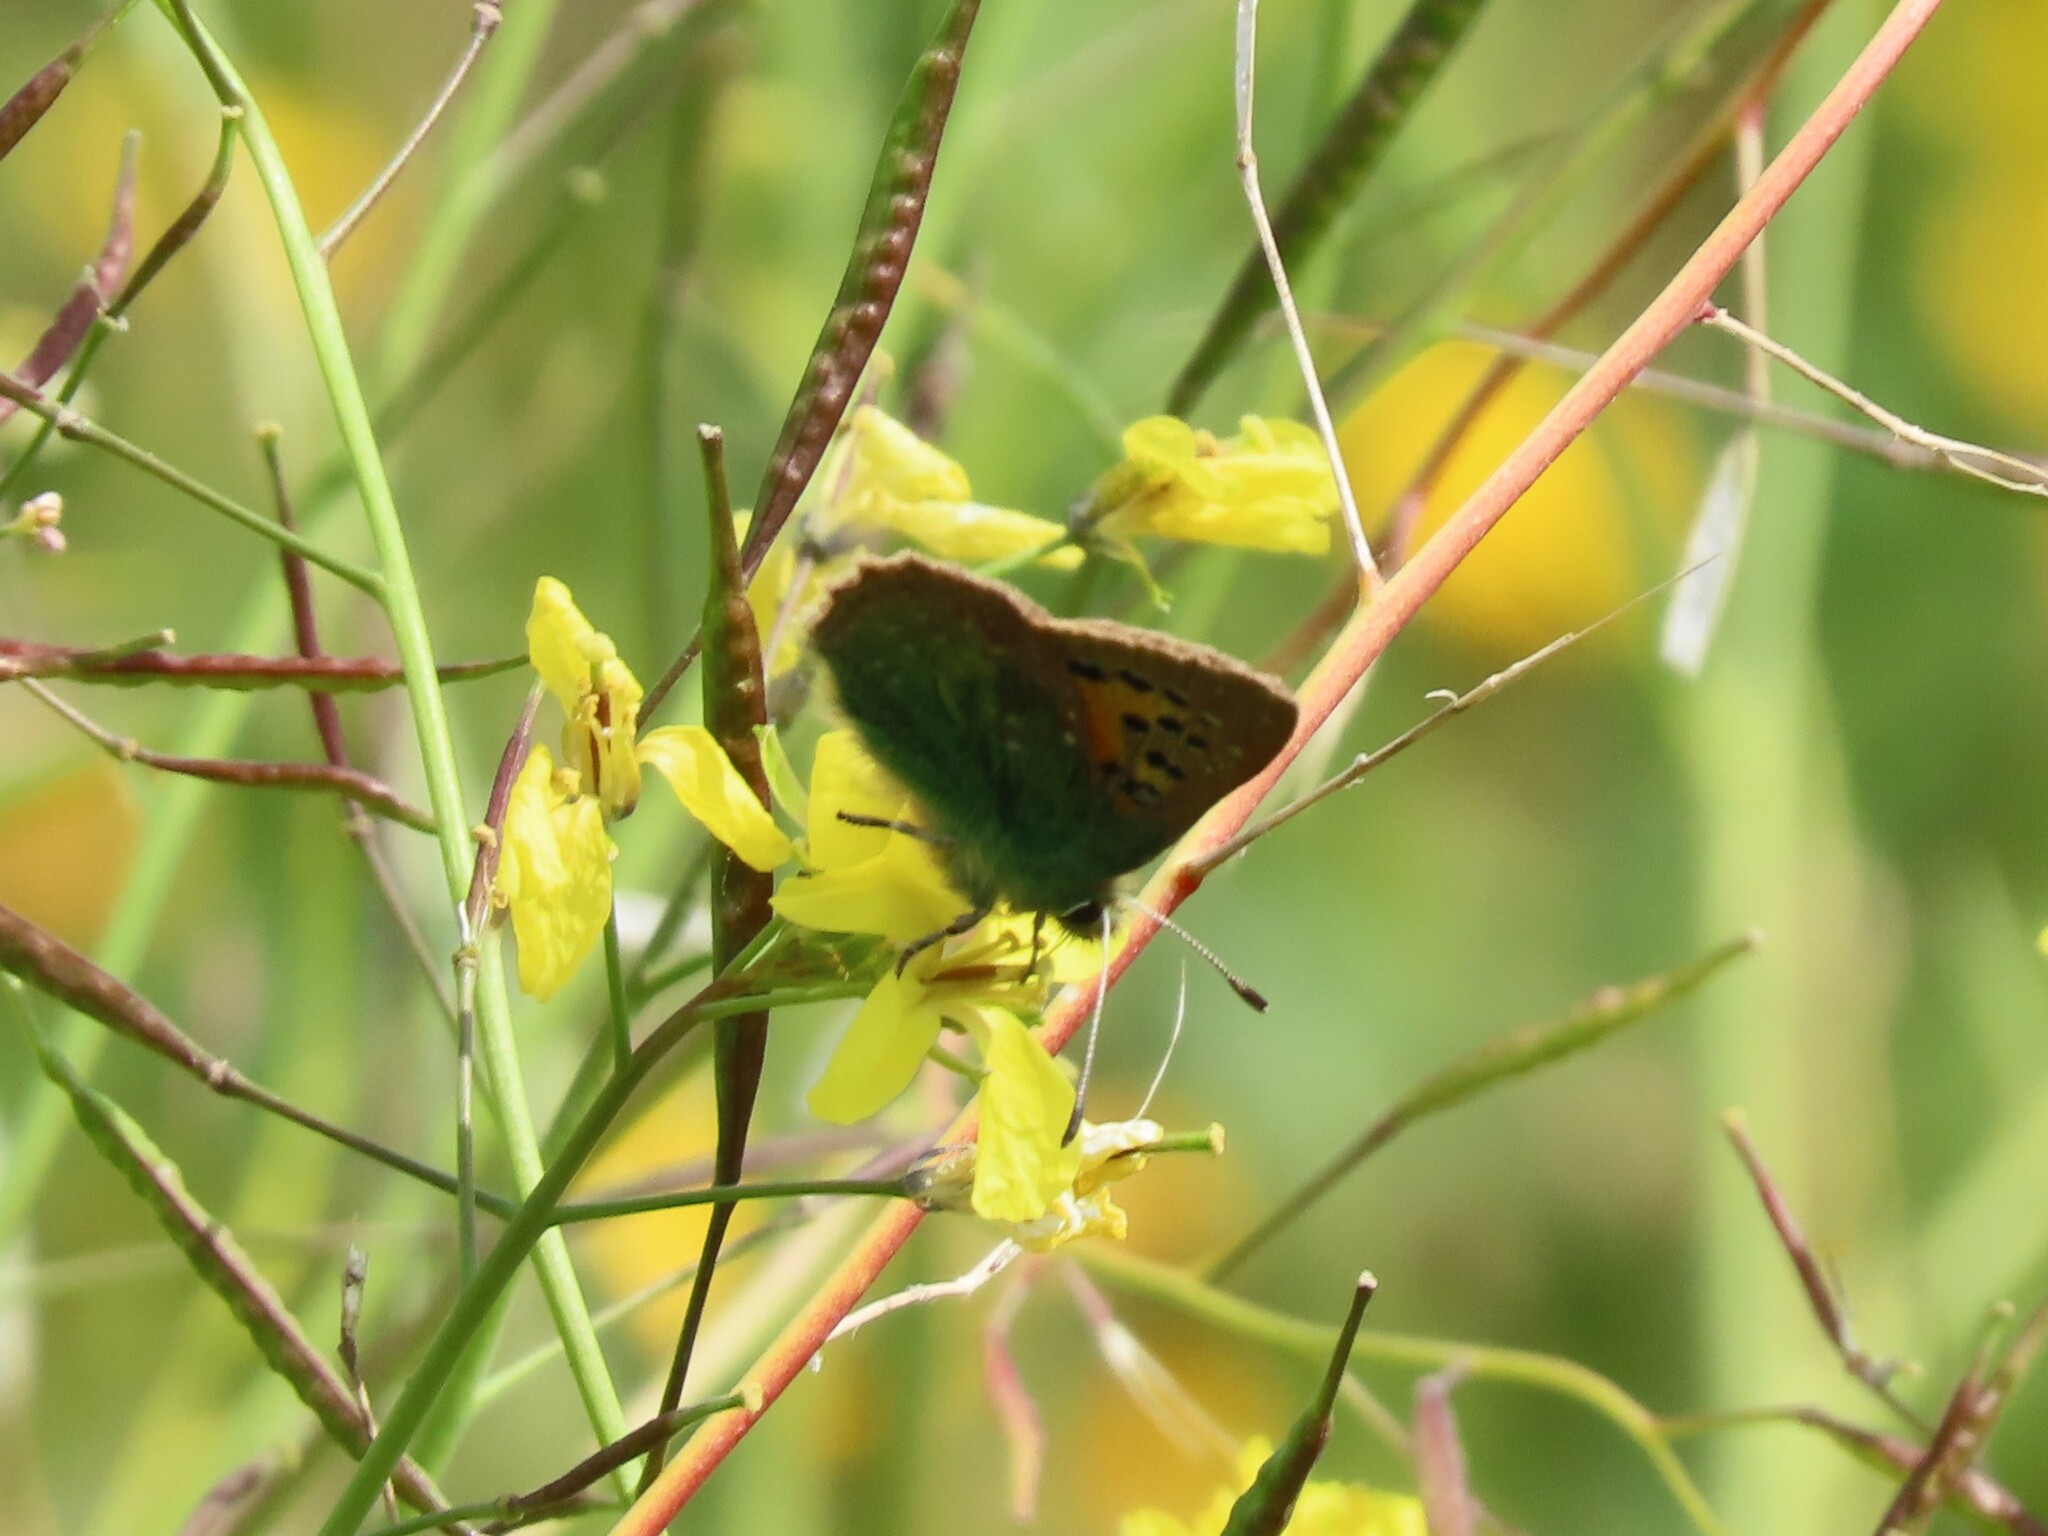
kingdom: Animalia
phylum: Arthropoda
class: Insecta
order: Lepidoptera
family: Lycaenidae
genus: Tomares
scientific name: Tomares ballus
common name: Provence hairstreak
